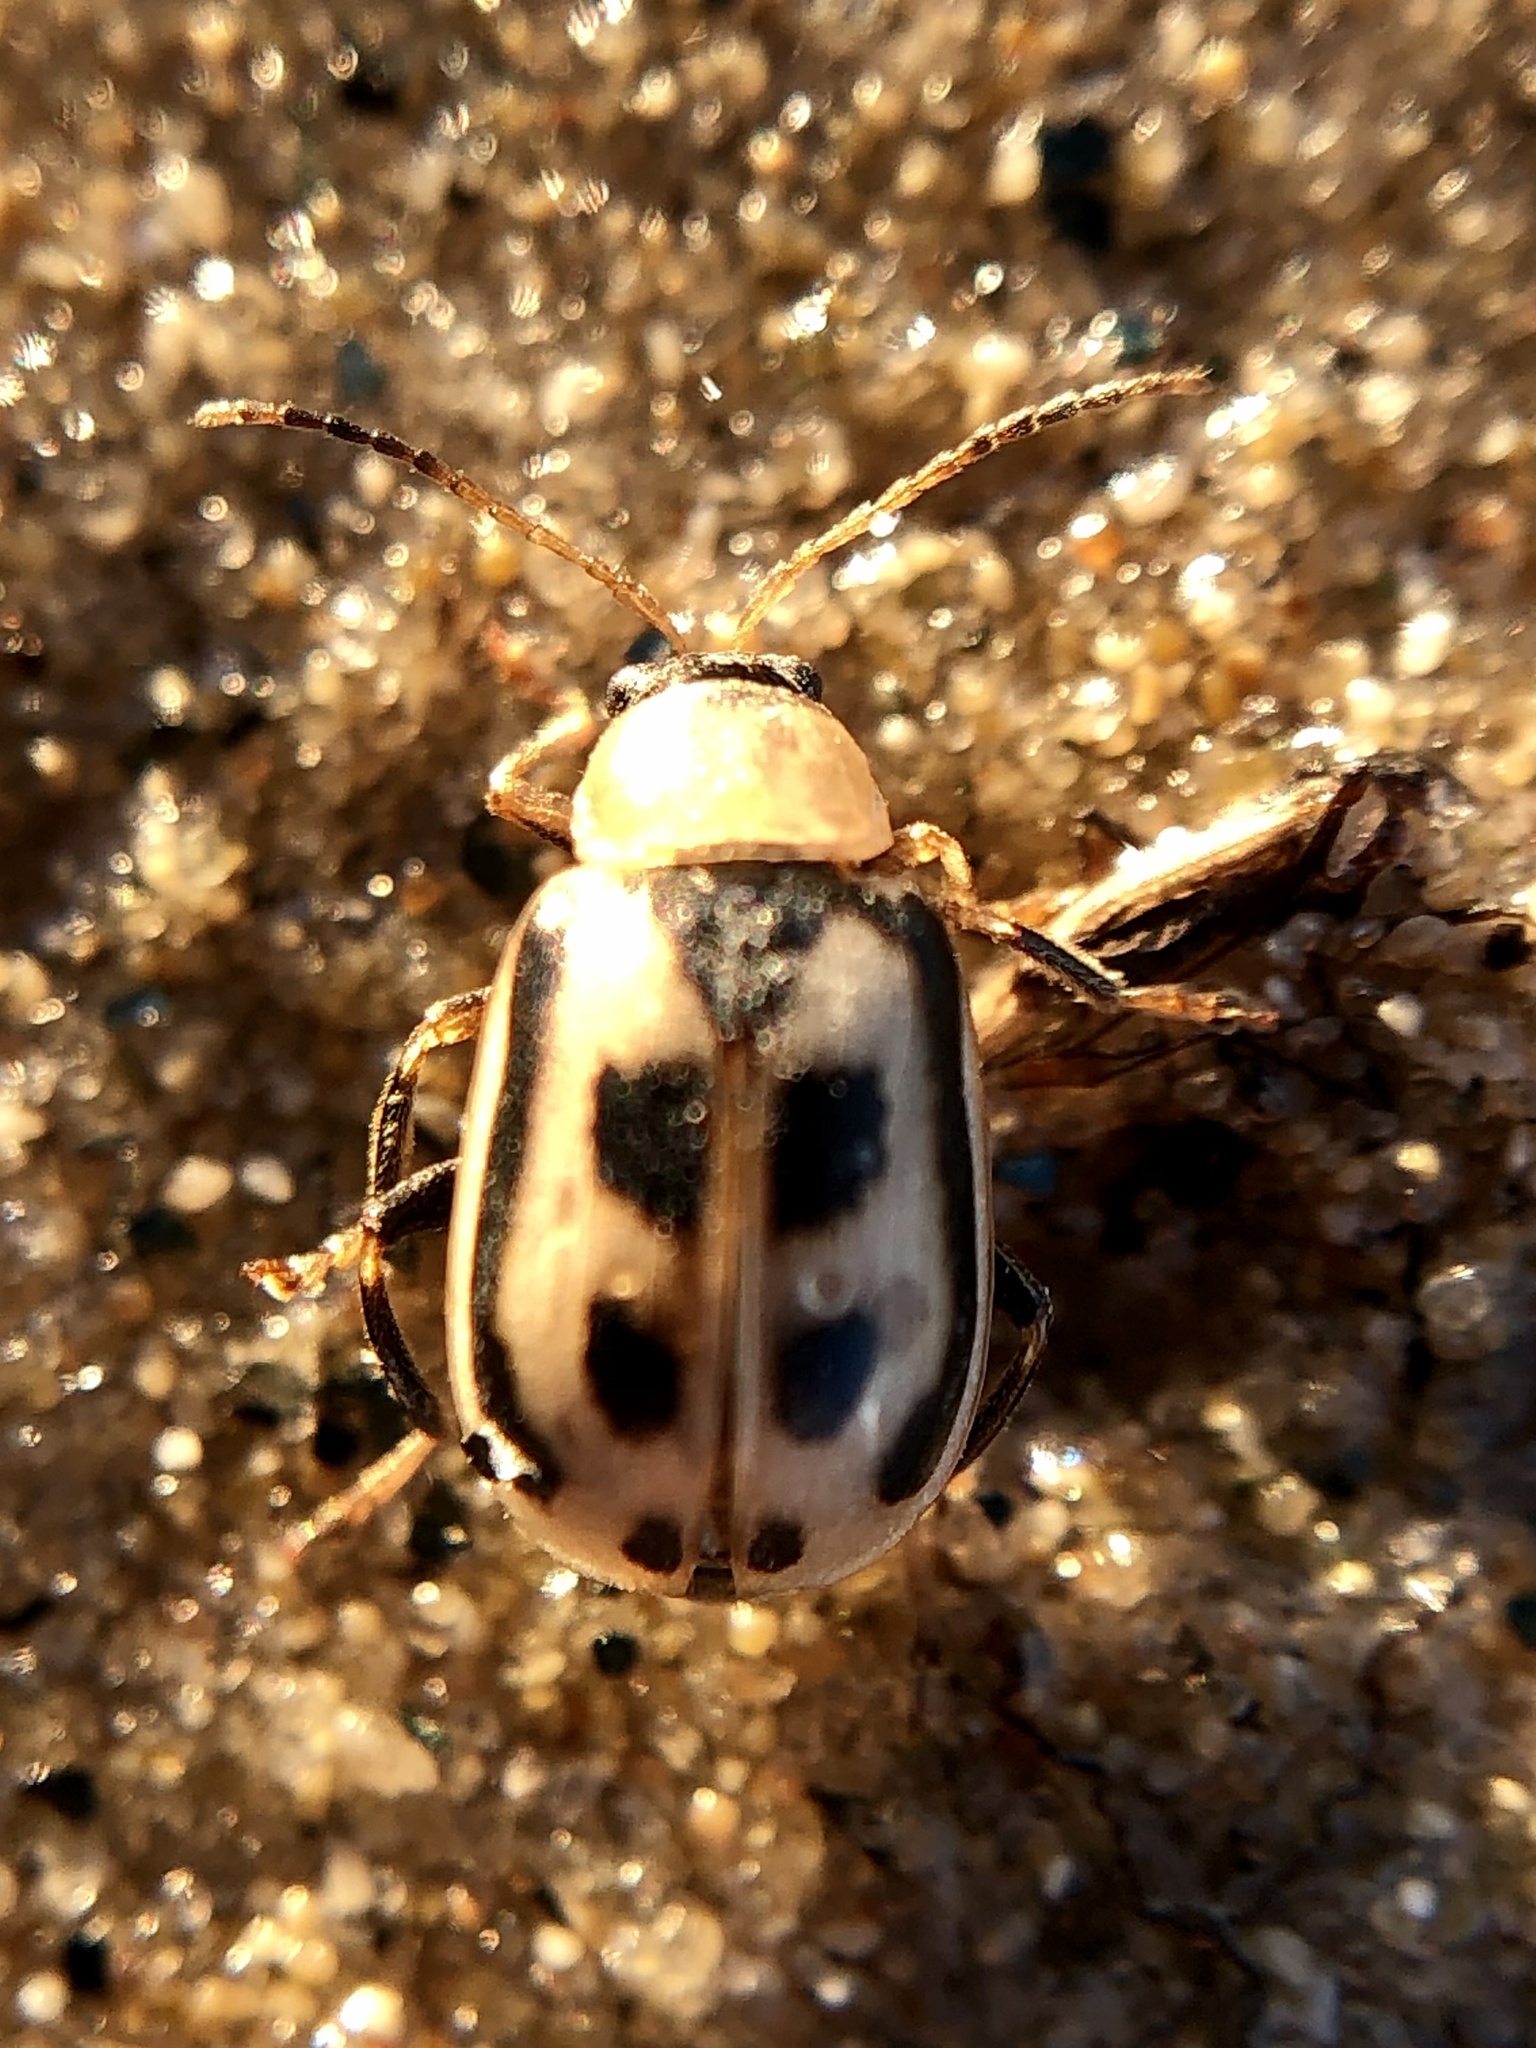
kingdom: Animalia
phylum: Arthropoda
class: Insecta
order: Coleoptera
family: Chrysomelidae
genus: Cerotoma
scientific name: Cerotoma trifurcata
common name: Bean leaf beetle
